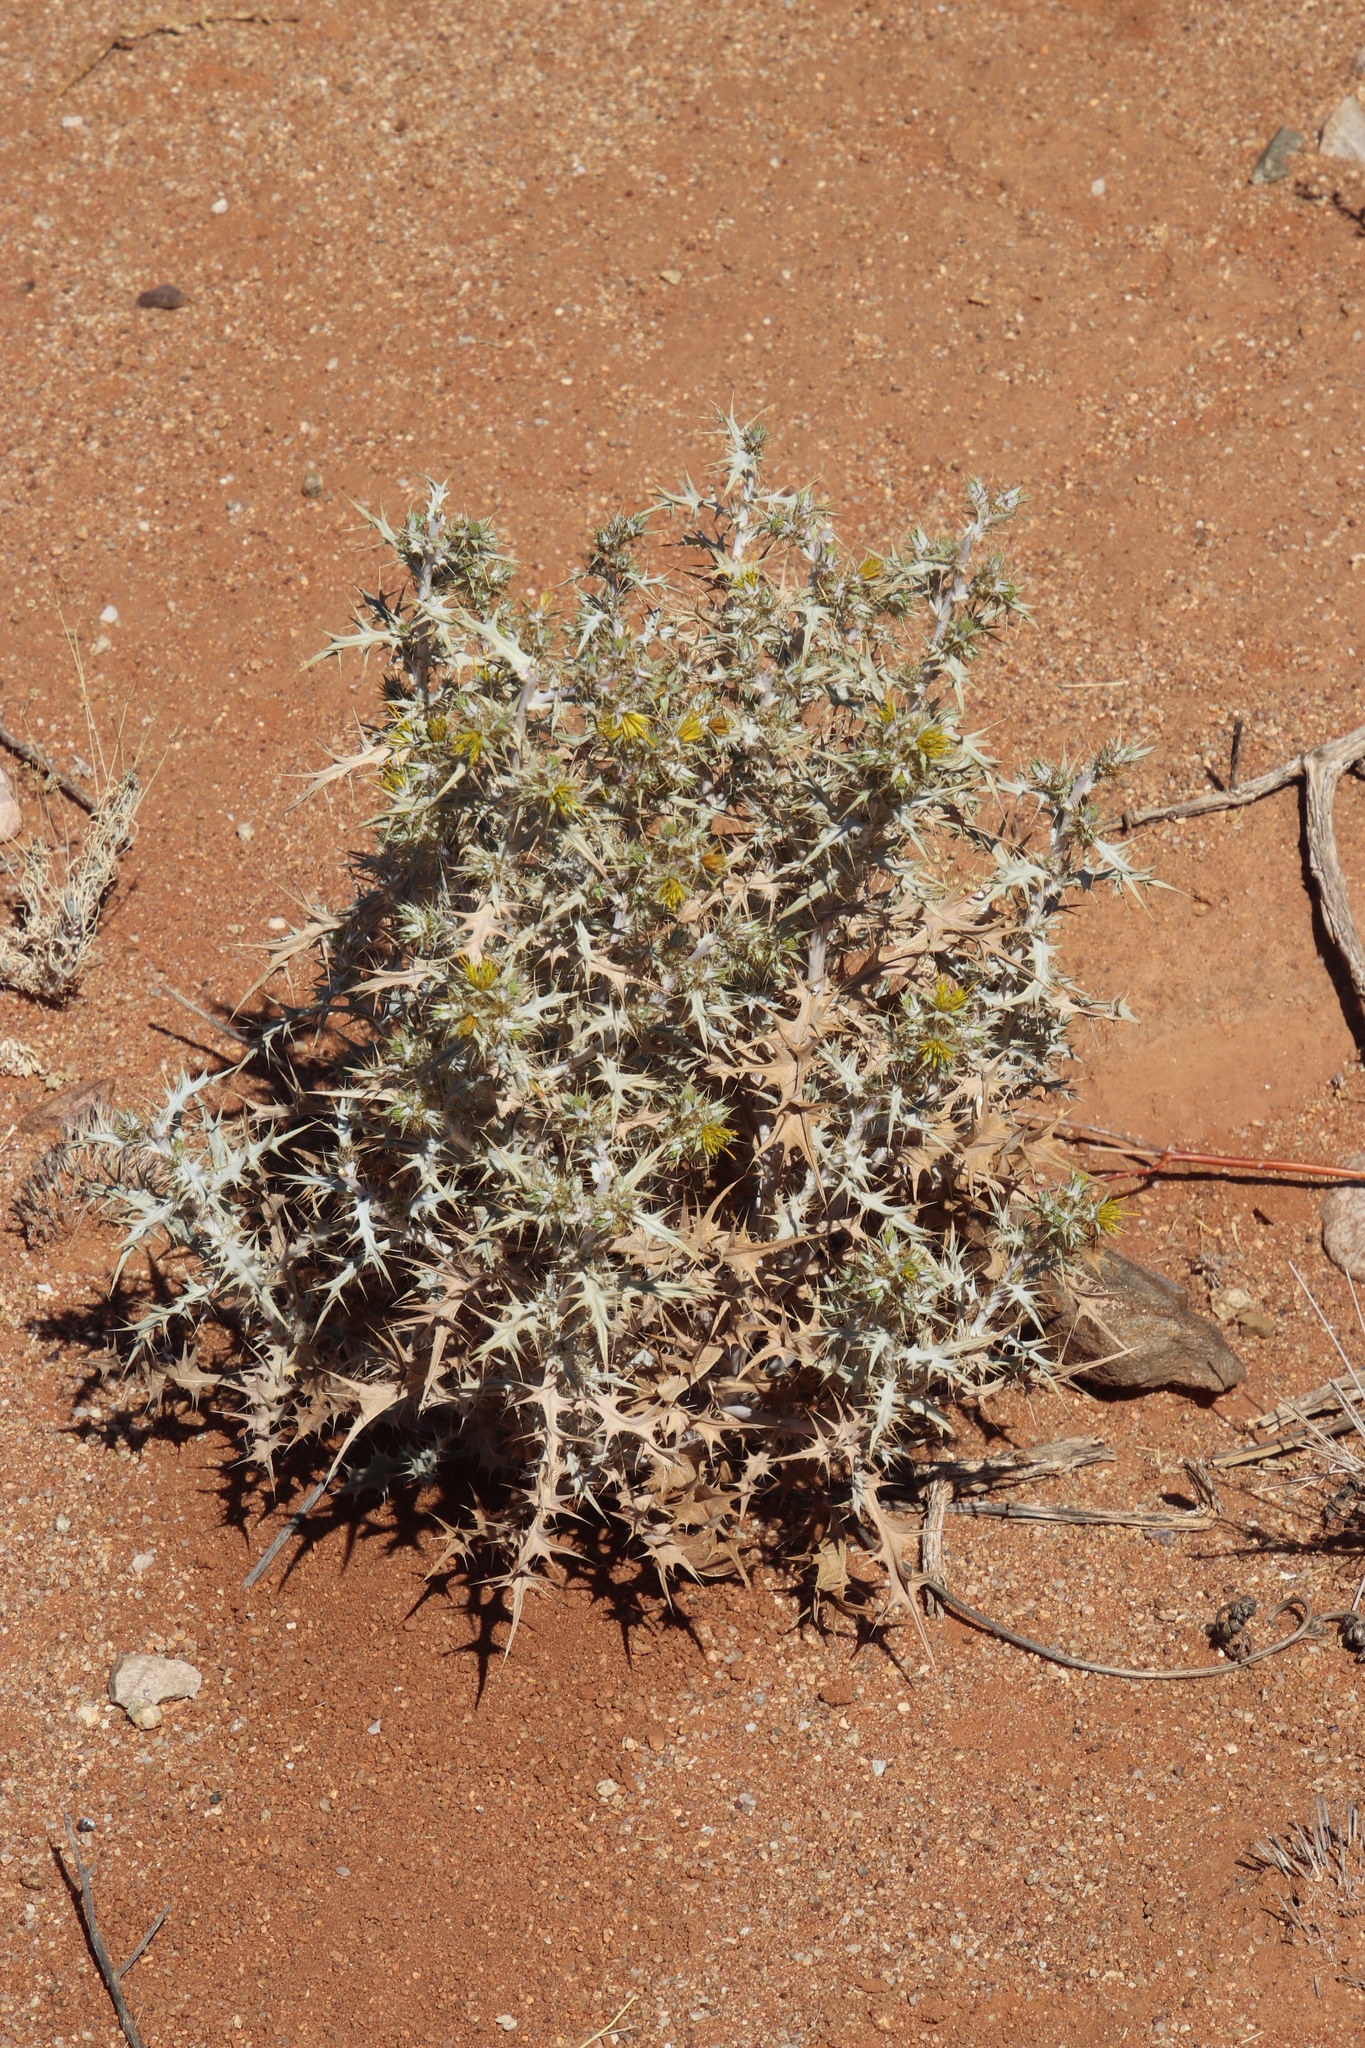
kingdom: Plantae
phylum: Tracheophyta
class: Magnoliopsida
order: Asterales
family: Asteraceae
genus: Berkheya
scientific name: Berkheya annectens
